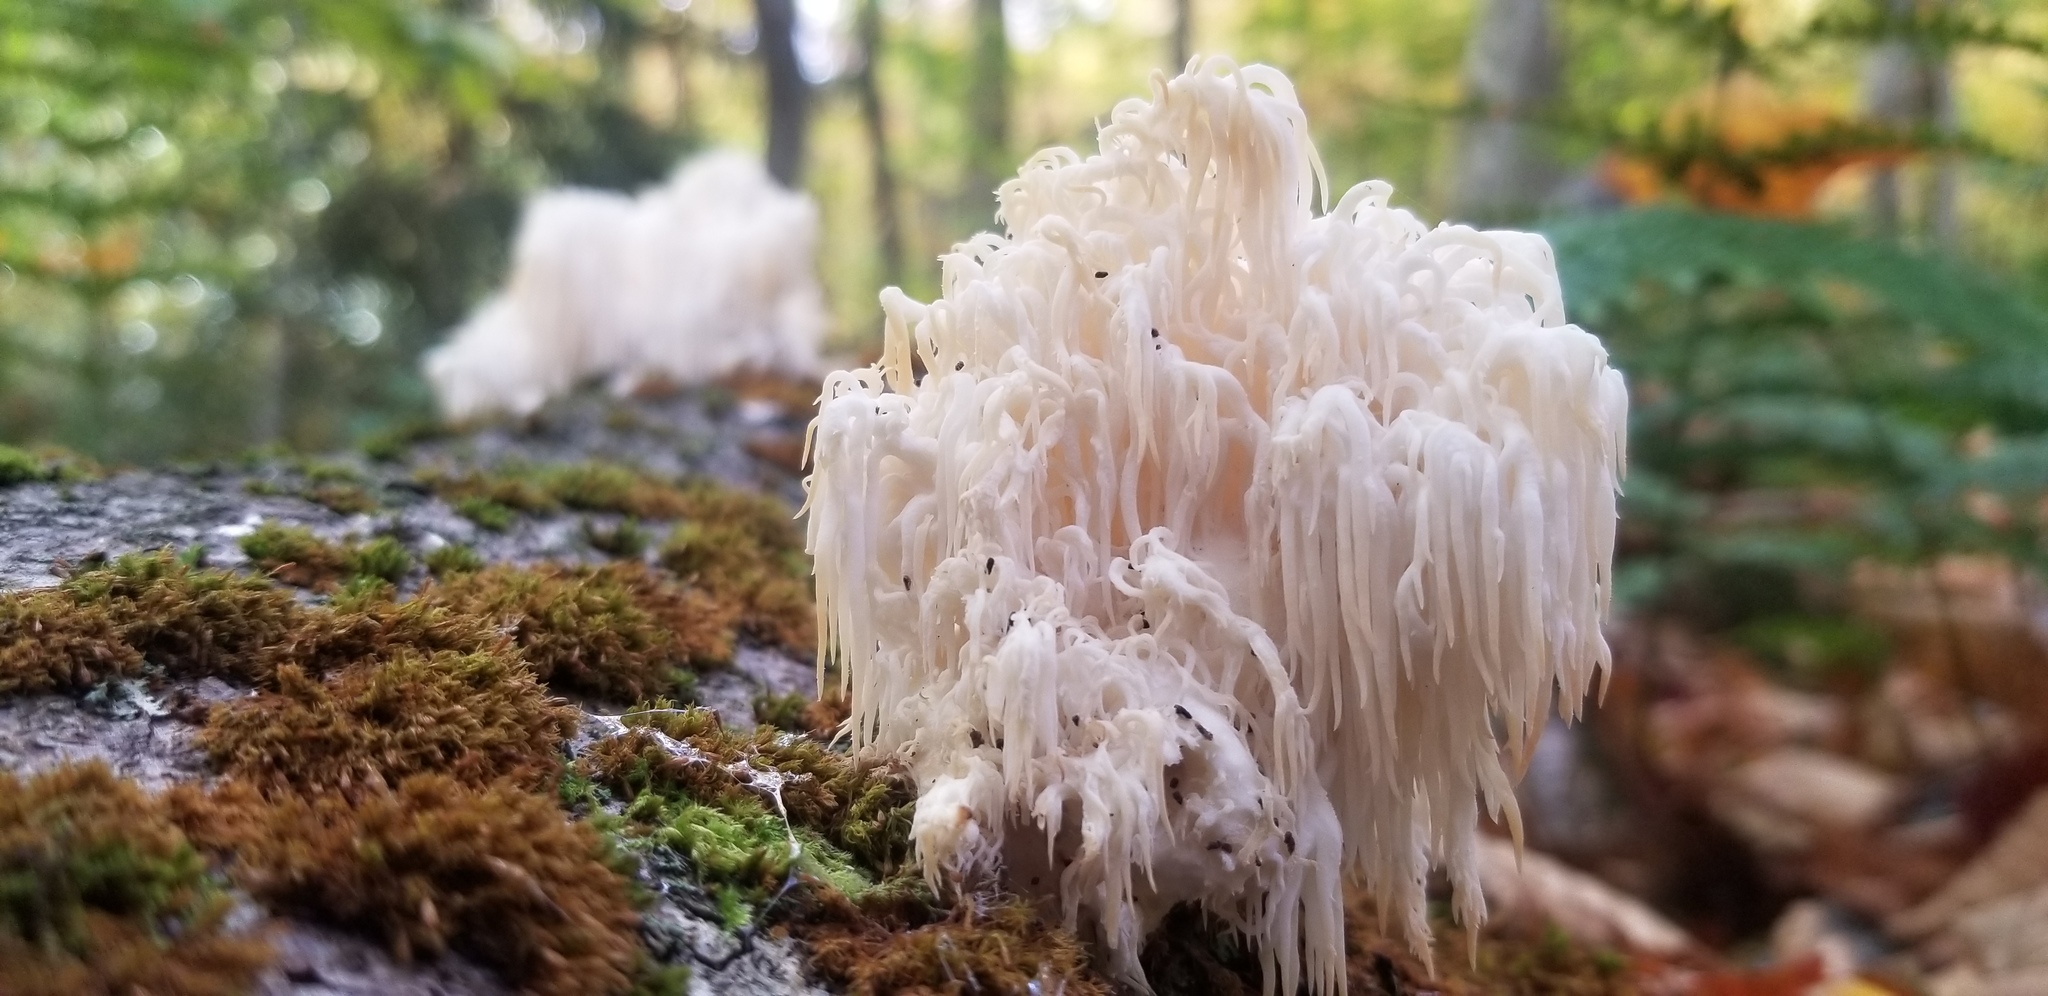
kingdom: Fungi
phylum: Basidiomycota
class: Agaricomycetes
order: Russulales
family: Hericiaceae
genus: Hericium
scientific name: Hericium americanum
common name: Bear's head tooth
